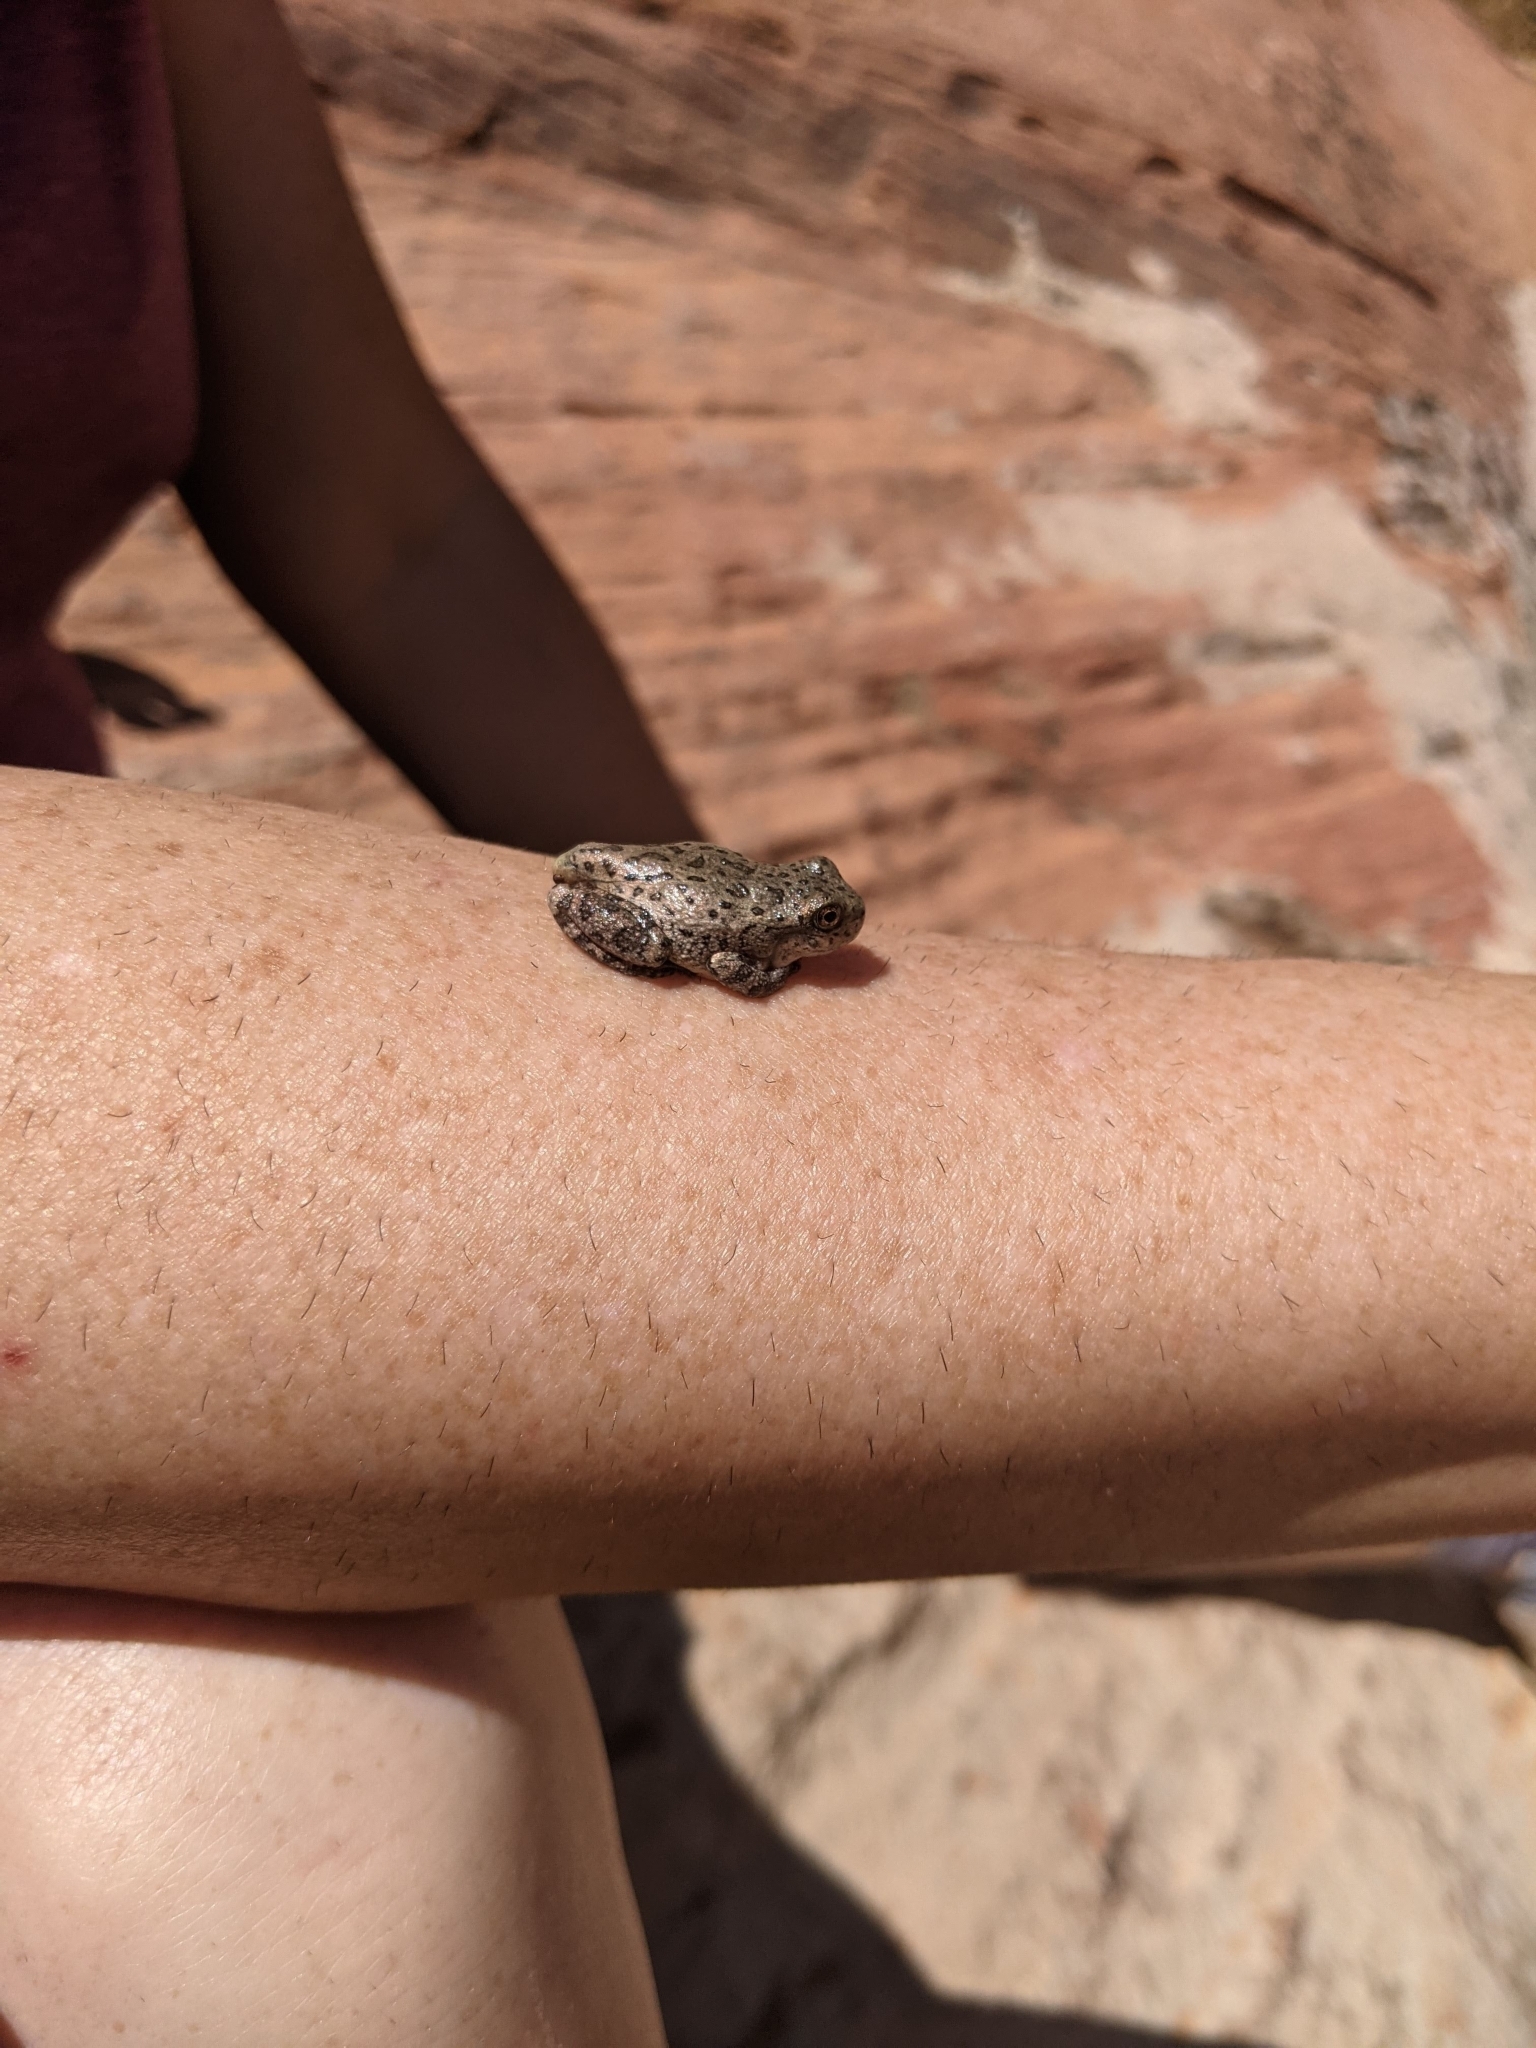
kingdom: Animalia
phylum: Chordata
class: Amphibia
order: Anura
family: Hylidae
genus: Dryophytes
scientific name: Dryophytes arenicolor
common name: Canyon treefrog
